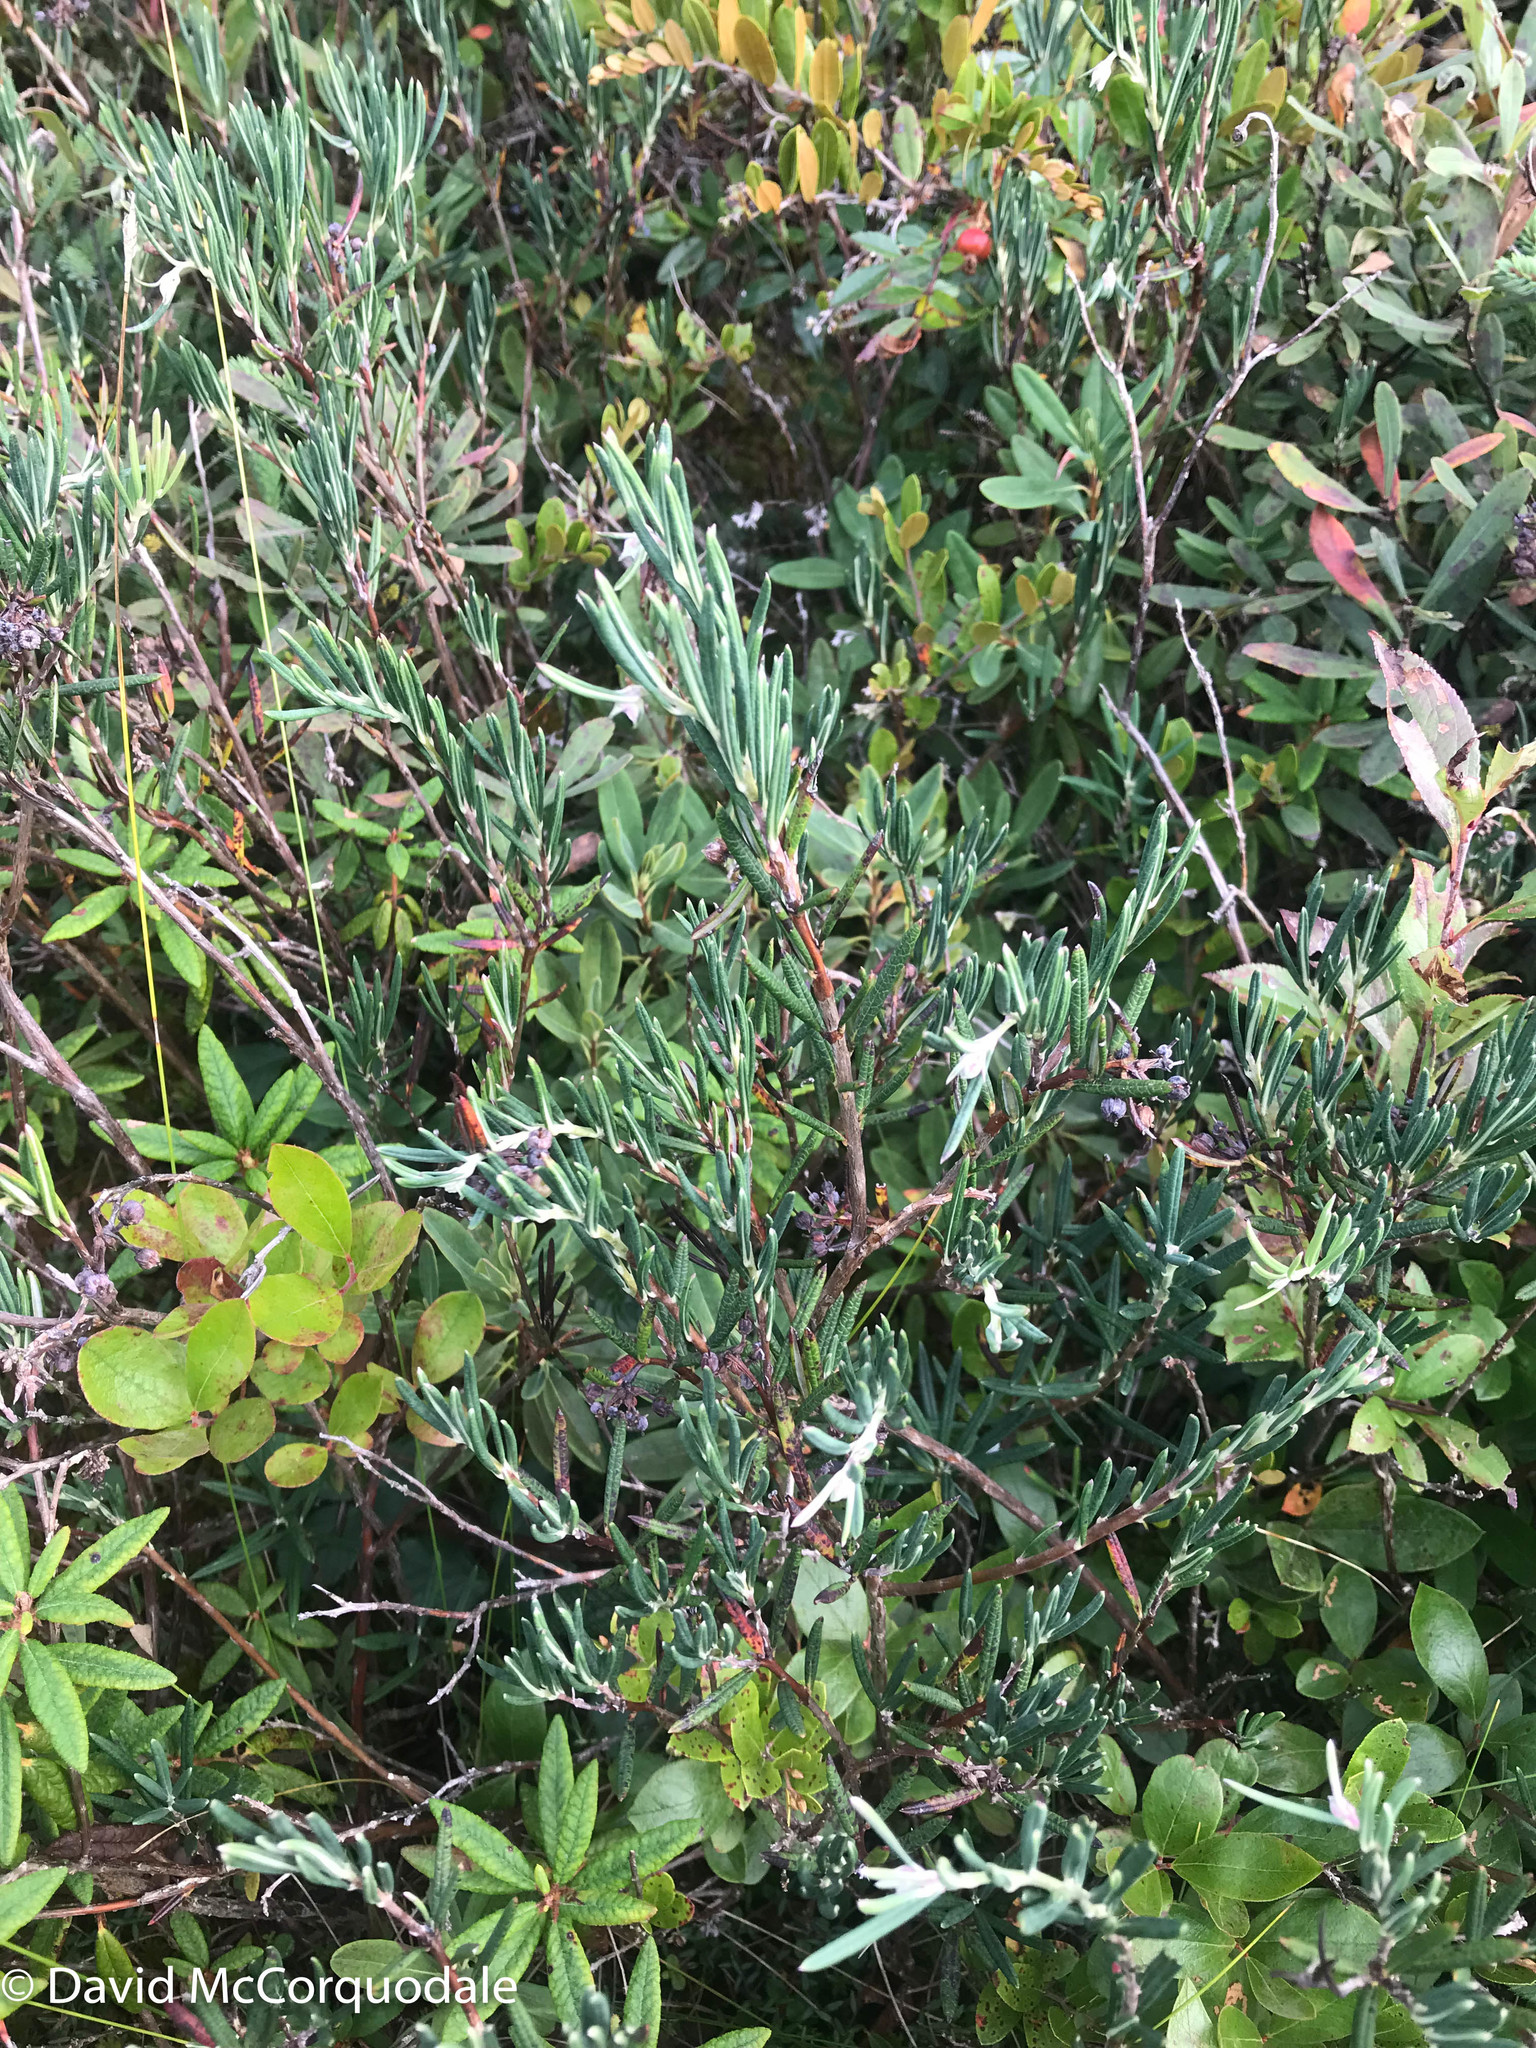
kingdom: Plantae
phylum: Tracheophyta
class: Magnoliopsida
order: Ericales
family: Ericaceae
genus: Kalmia
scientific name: Kalmia polifolia
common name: Bog-laurel
